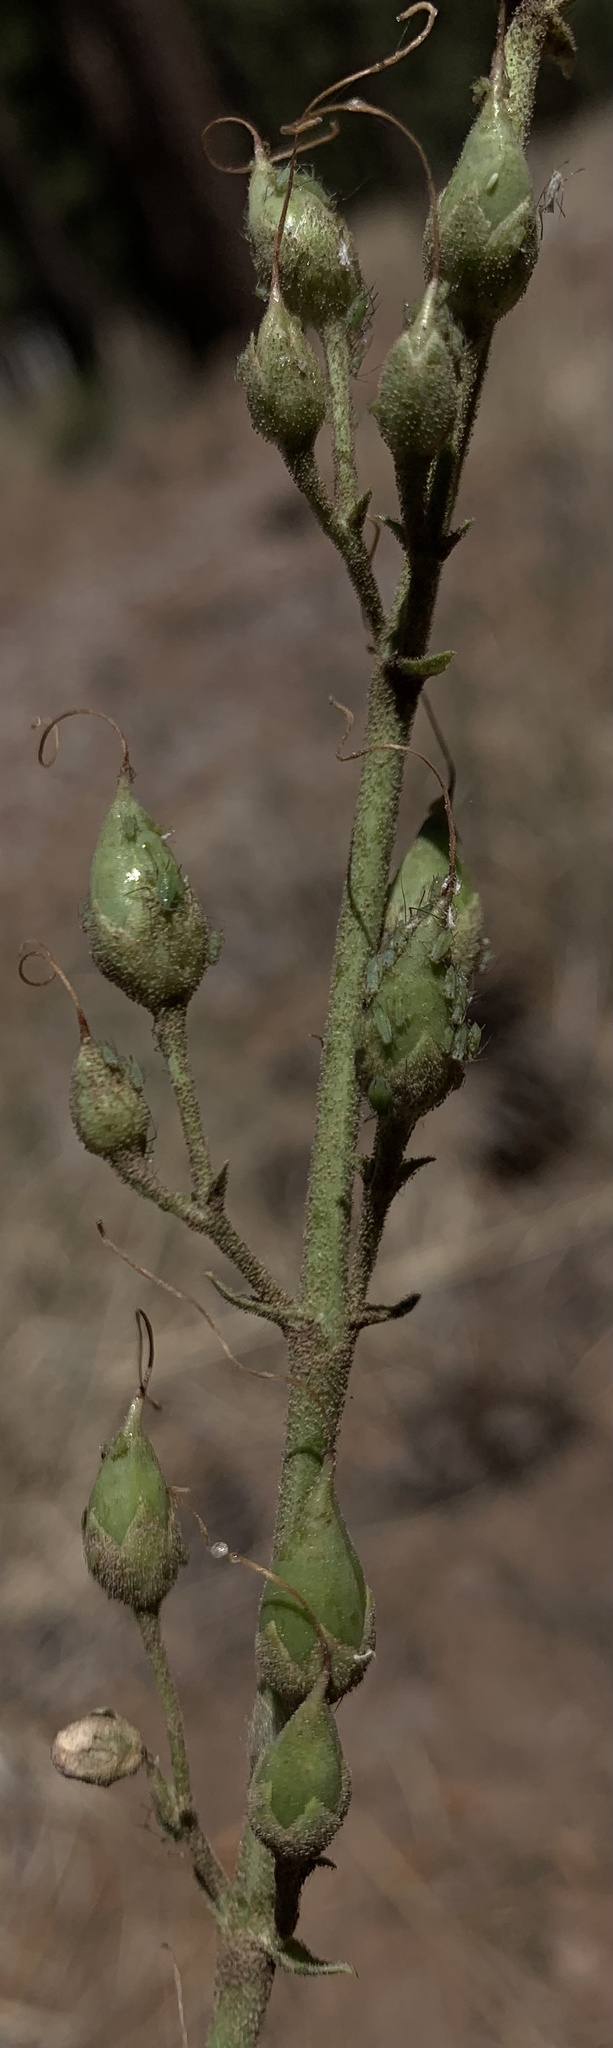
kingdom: Plantae
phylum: Tracheophyta
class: Magnoliopsida
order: Lamiales
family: Plantaginaceae
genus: Penstemon
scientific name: Penstemon palmeri
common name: Palmer penstemon
